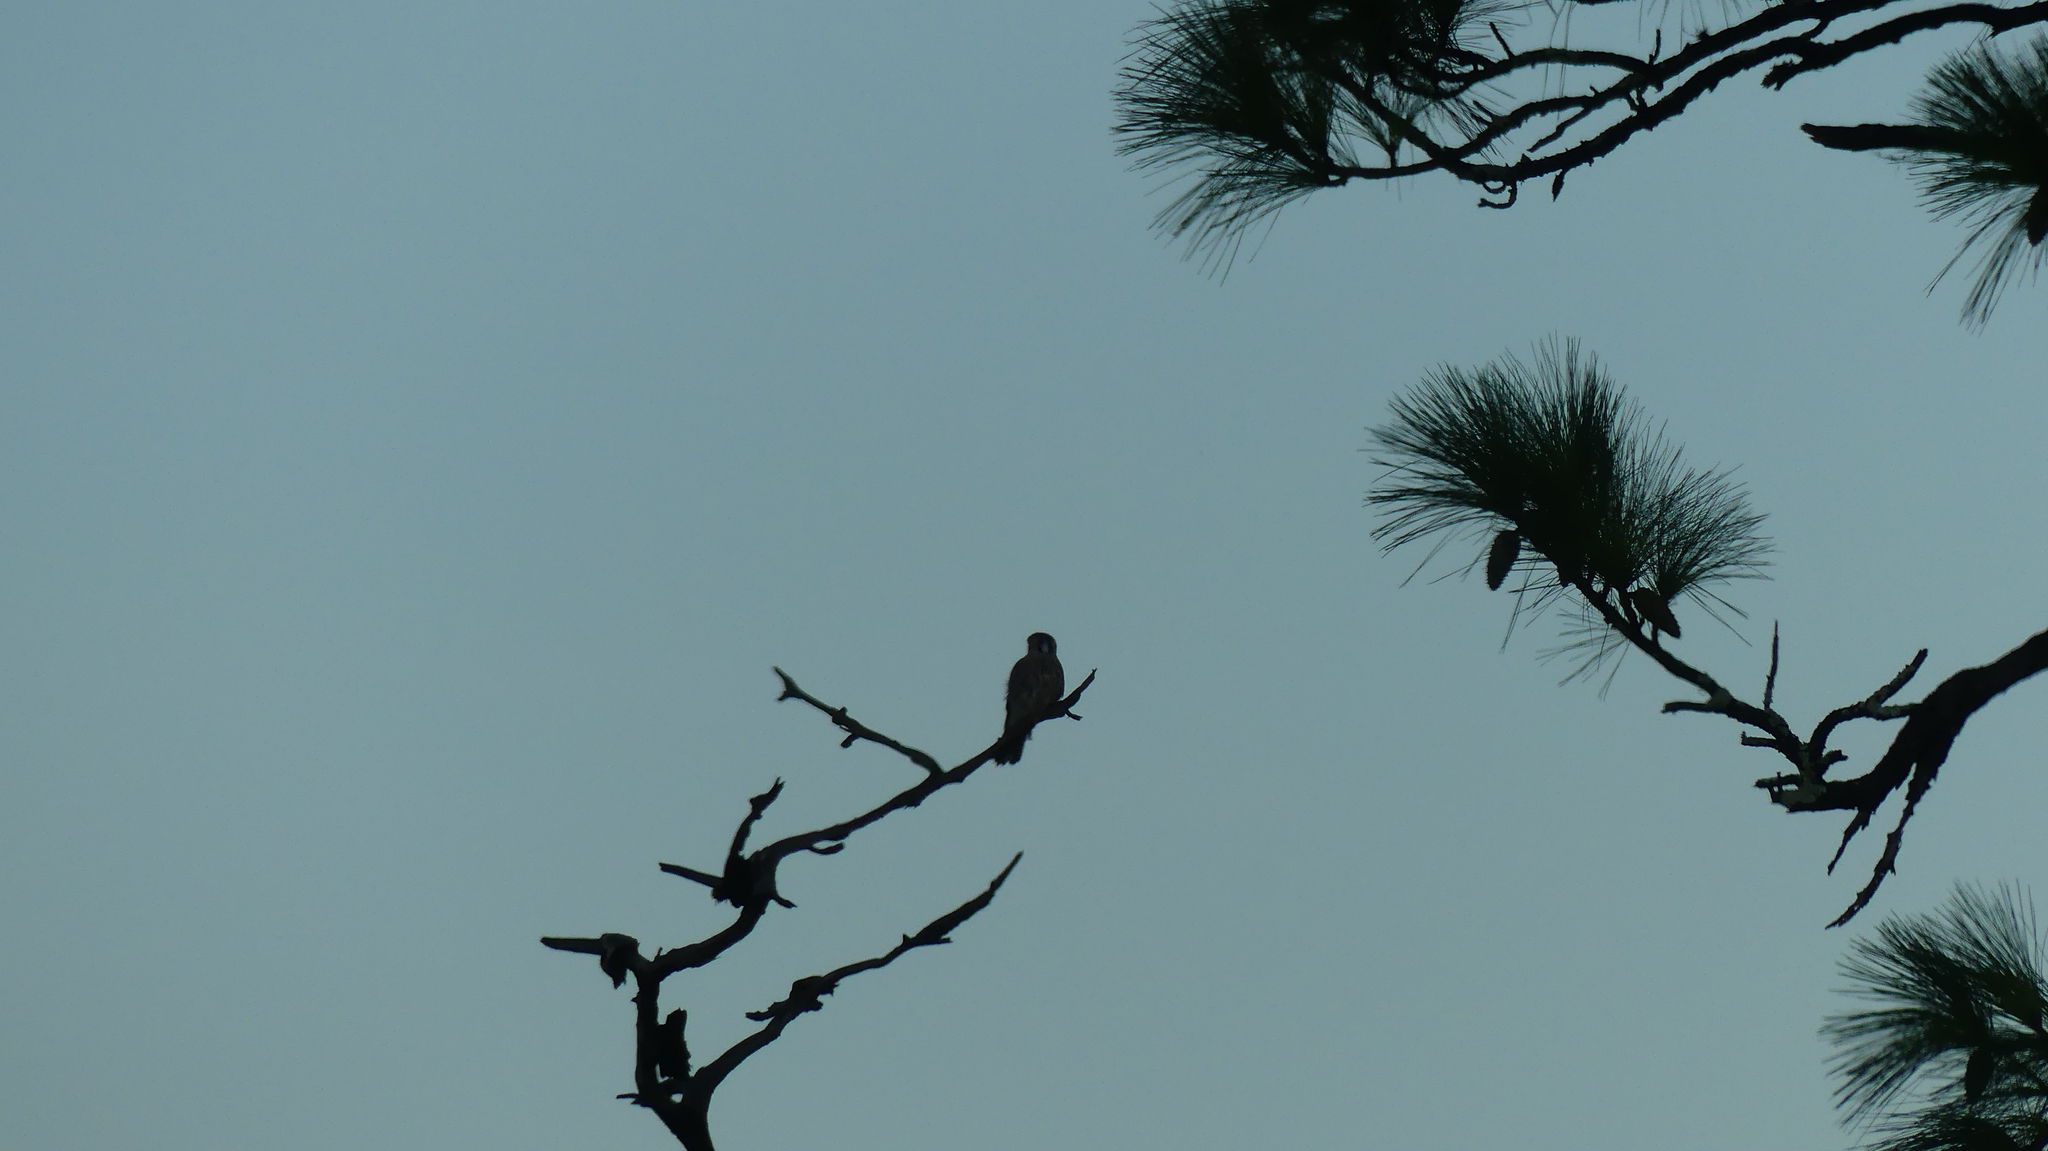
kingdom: Animalia
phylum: Chordata
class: Aves
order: Falconiformes
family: Falconidae
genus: Falco
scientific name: Falco sparverius
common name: American kestrel
